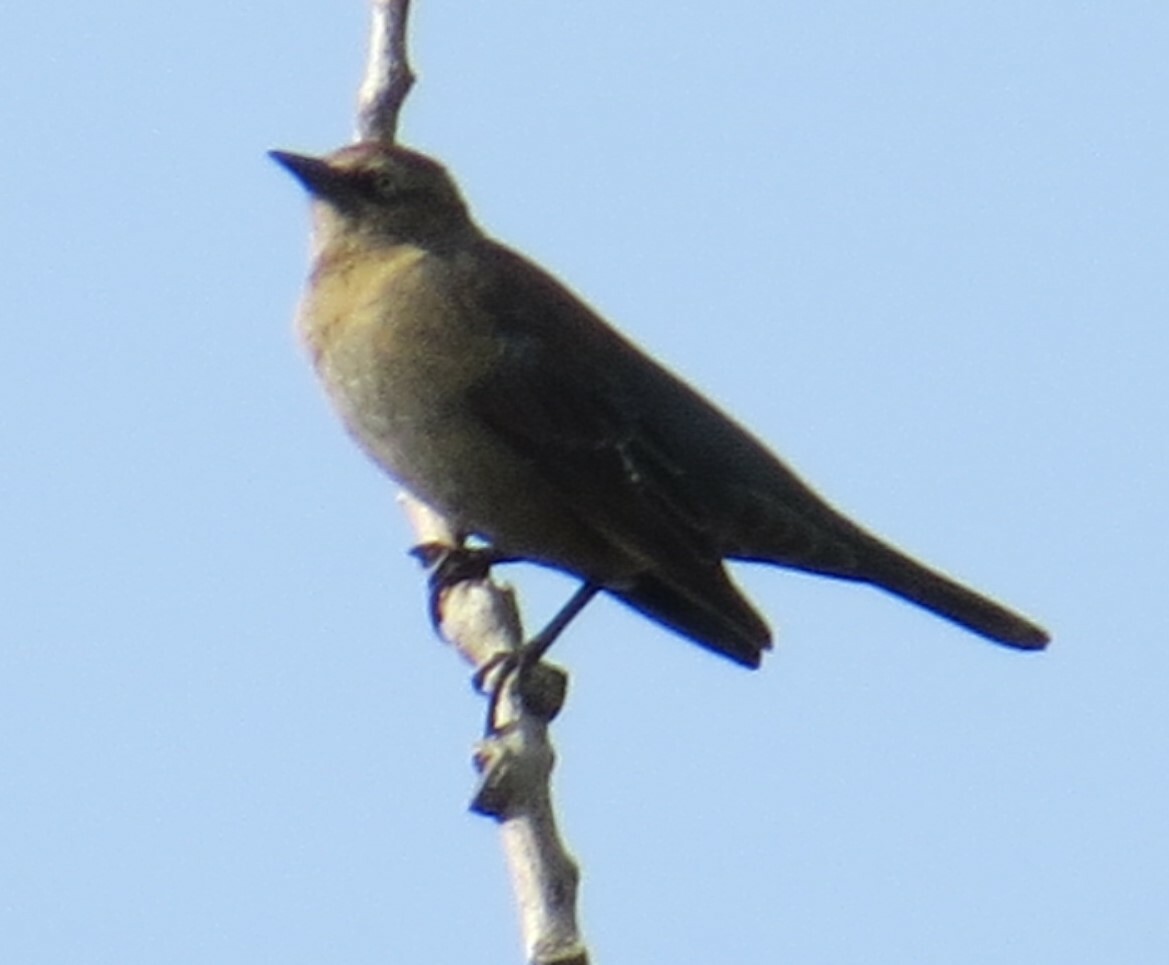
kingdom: Animalia
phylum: Chordata
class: Aves
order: Passeriformes
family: Icteridae
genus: Euphagus
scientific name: Euphagus carolinus
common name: Rusty blackbird
